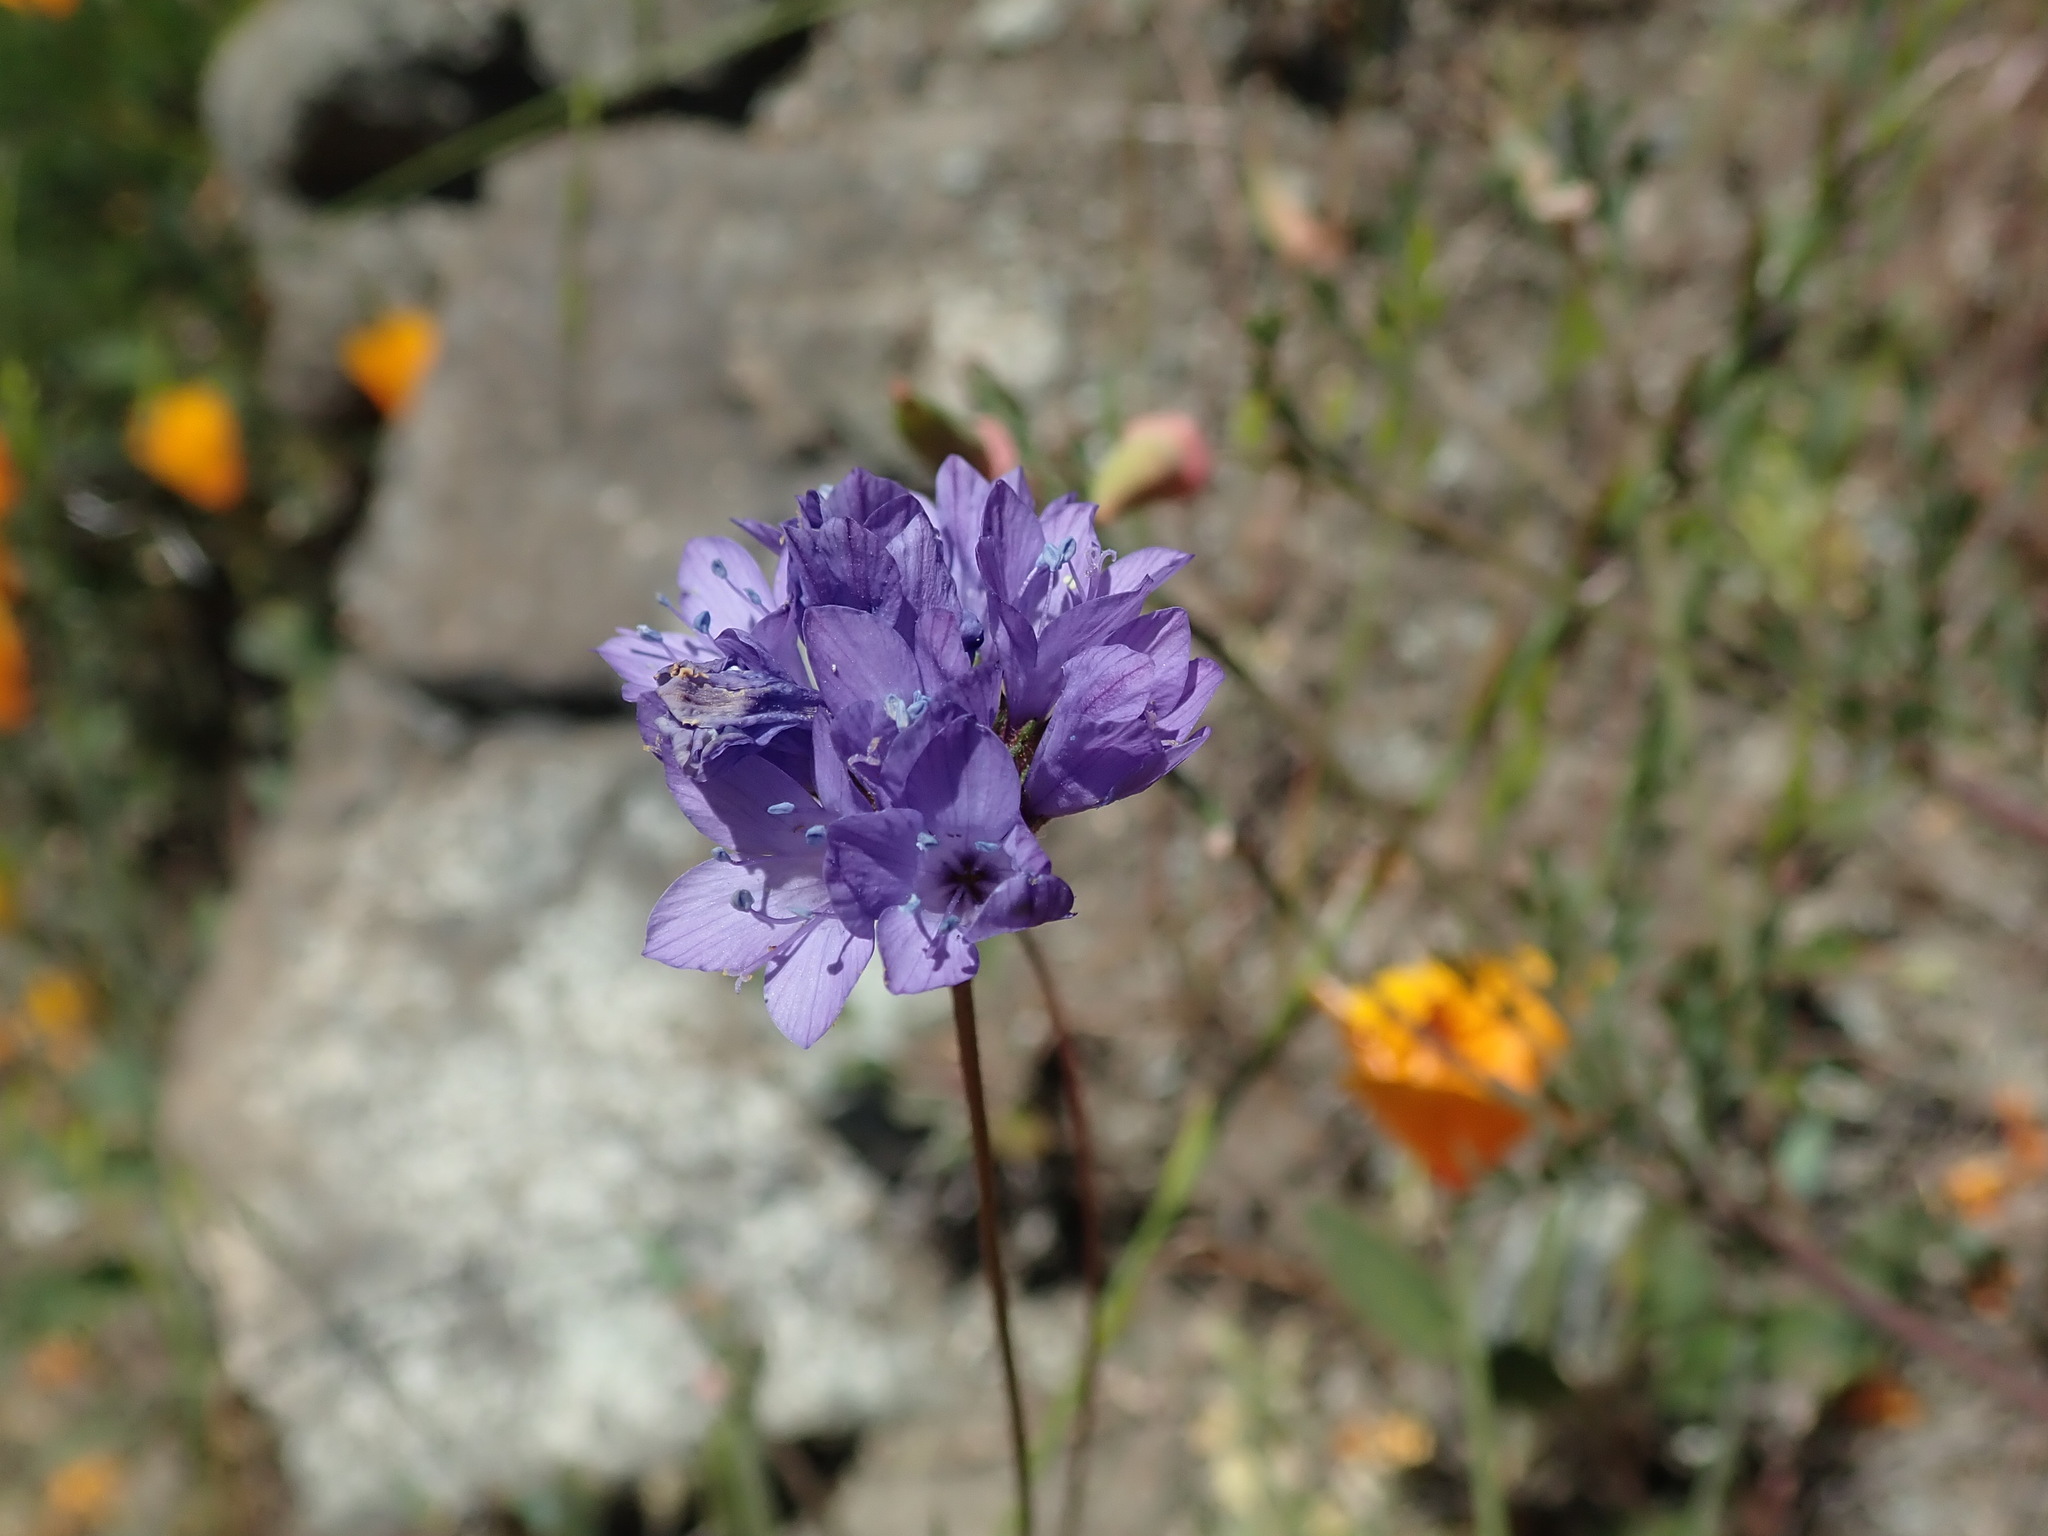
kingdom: Plantae
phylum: Tracheophyta
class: Magnoliopsida
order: Ericales
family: Polemoniaceae
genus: Gilia
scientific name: Gilia achilleifolia
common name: California gily-flower
